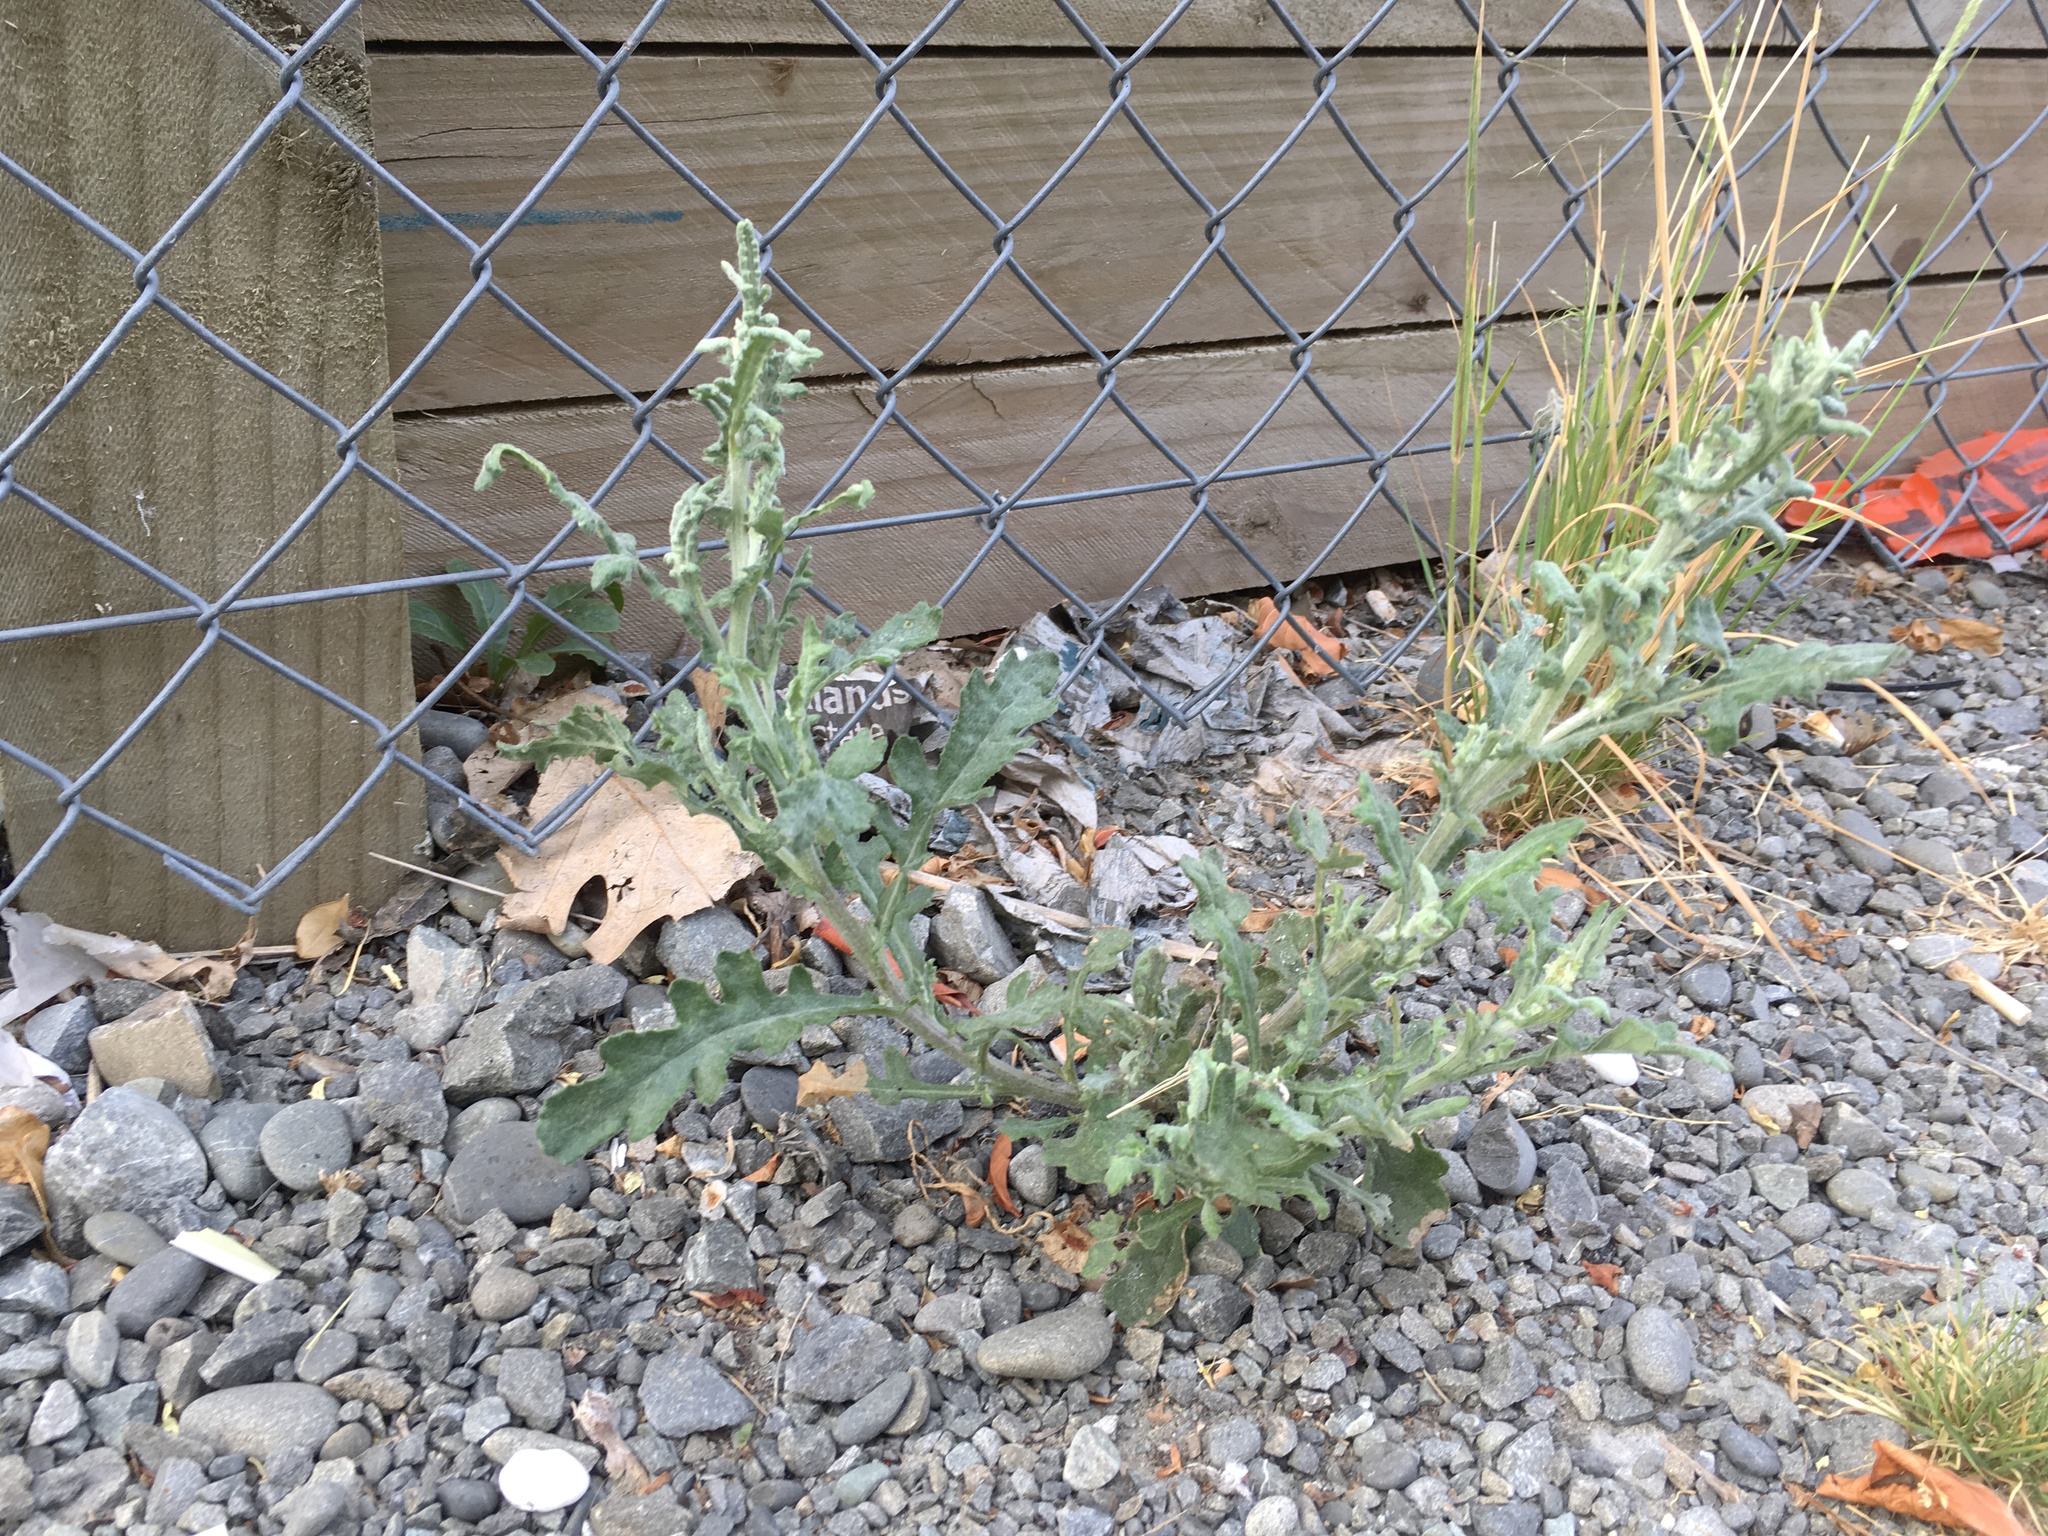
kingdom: Plantae
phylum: Tracheophyta
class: Magnoliopsida
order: Asterales
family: Asteraceae
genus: Senecio
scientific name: Senecio glomeratus
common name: Cutleaf burnweed
